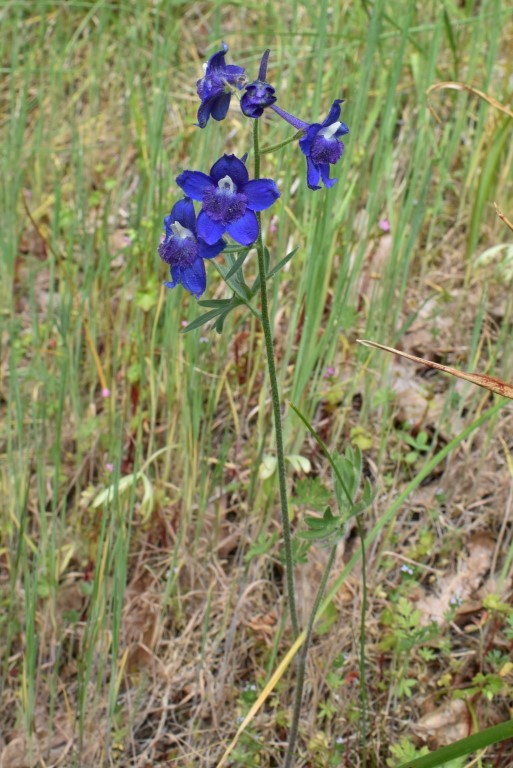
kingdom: Plantae
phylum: Tracheophyta
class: Magnoliopsida
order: Ranunculales
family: Ranunculaceae
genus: Delphinium
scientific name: Delphinium menziesii
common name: Menzies's larkspur
